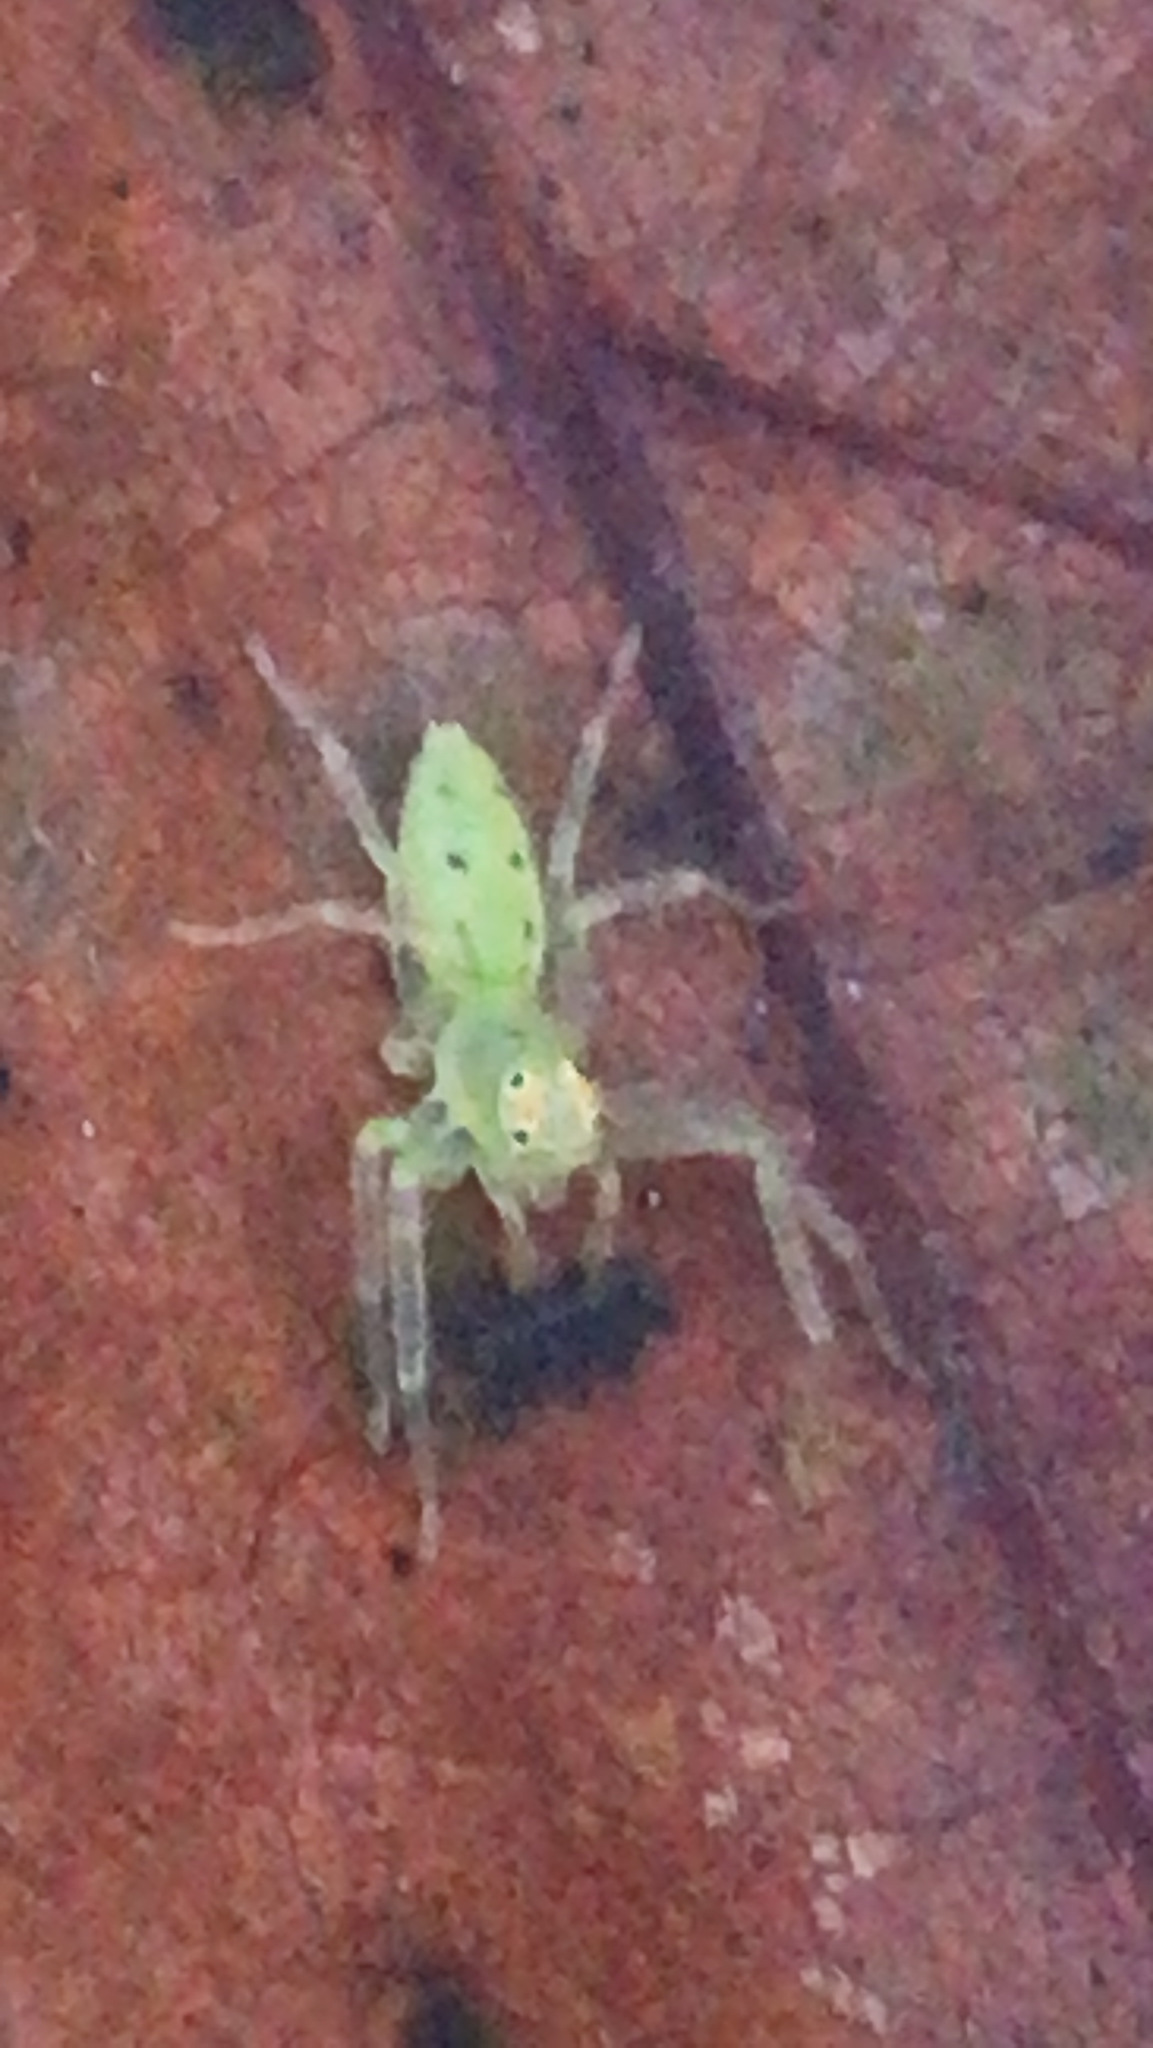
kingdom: Animalia
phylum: Arthropoda
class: Arachnida
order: Araneae
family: Salticidae
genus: Lyssomanes
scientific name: Lyssomanes viridis
